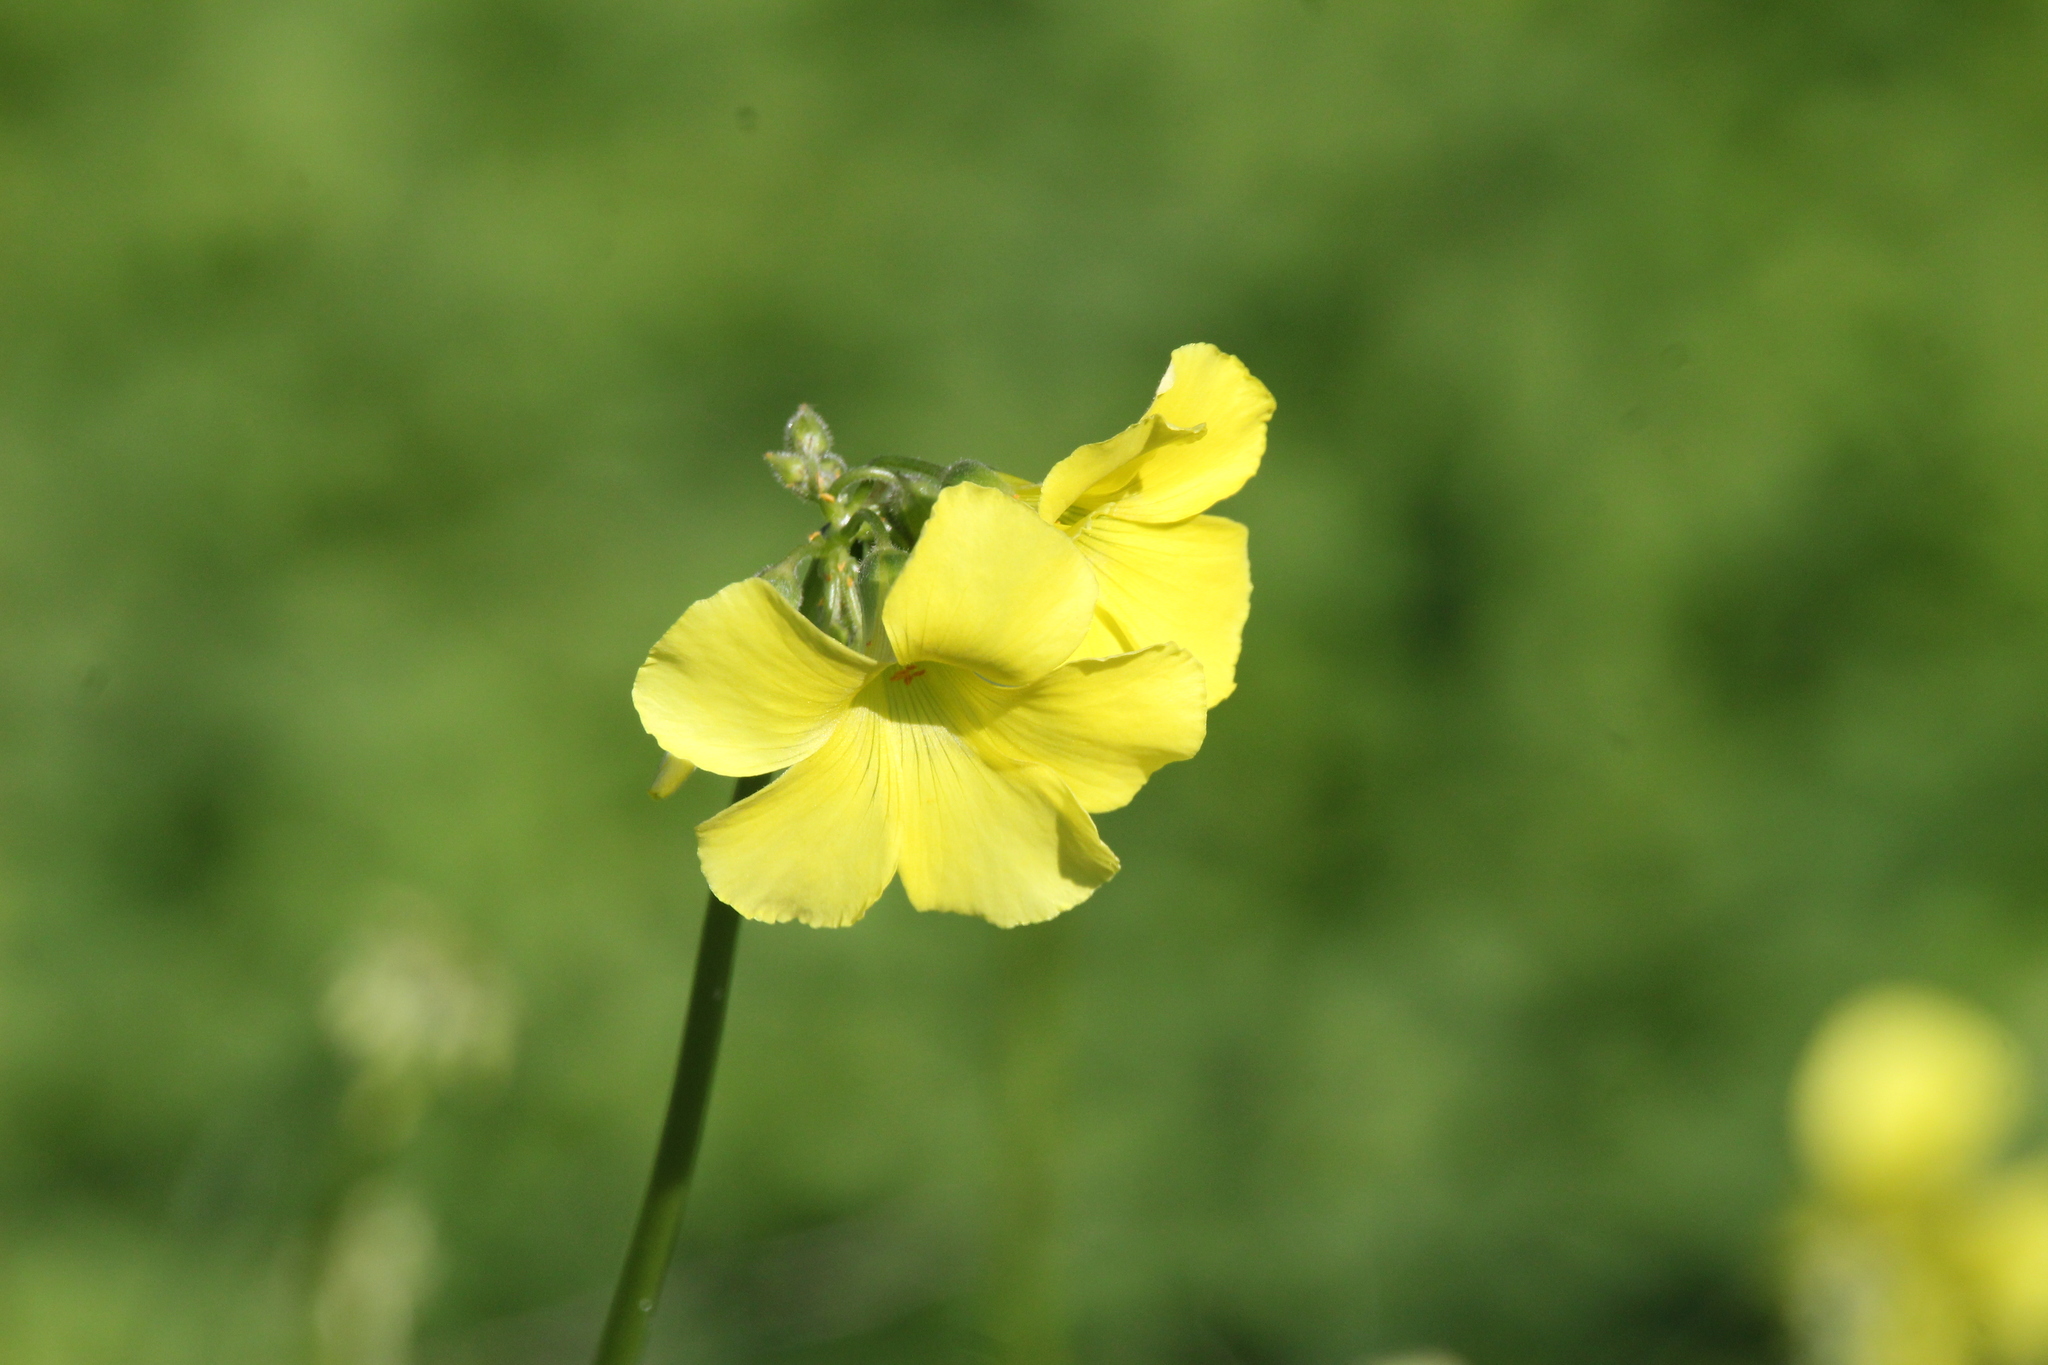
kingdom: Plantae
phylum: Tracheophyta
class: Magnoliopsida
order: Oxalidales
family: Oxalidaceae
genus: Oxalis
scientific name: Oxalis pes-caprae
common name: Bermuda-buttercup
